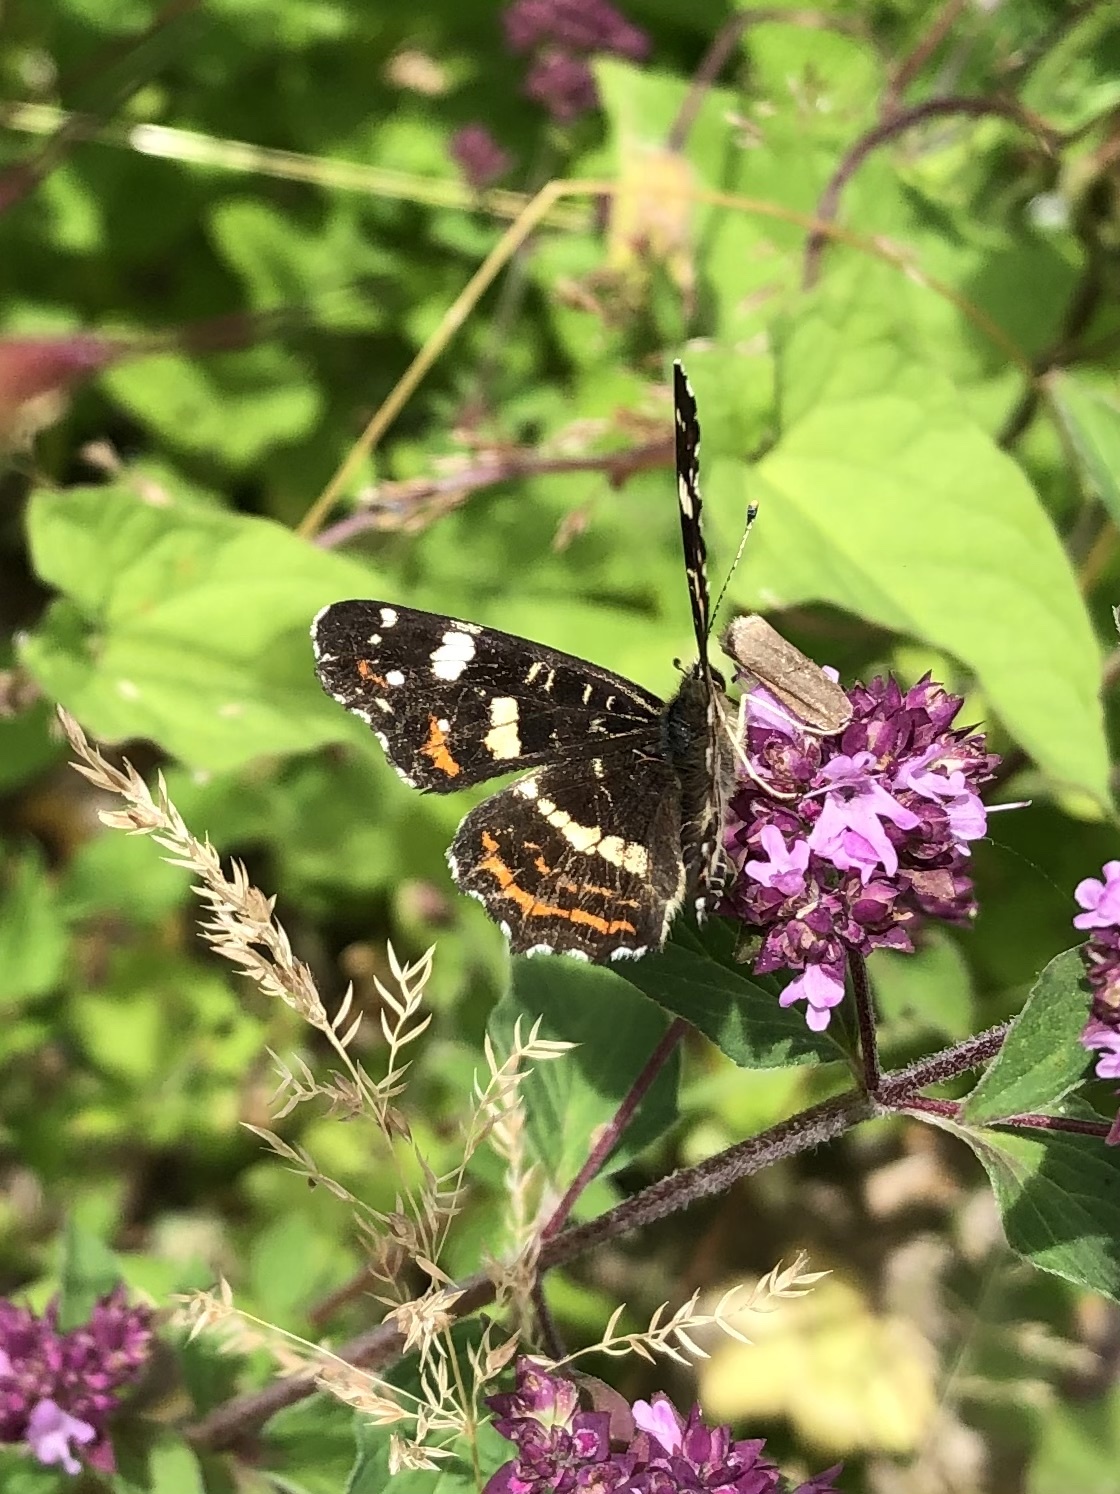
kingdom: Animalia
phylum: Arthropoda
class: Insecta
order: Lepidoptera
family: Nymphalidae
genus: Araschnia
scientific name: Araschnia levana
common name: Map butterfly
